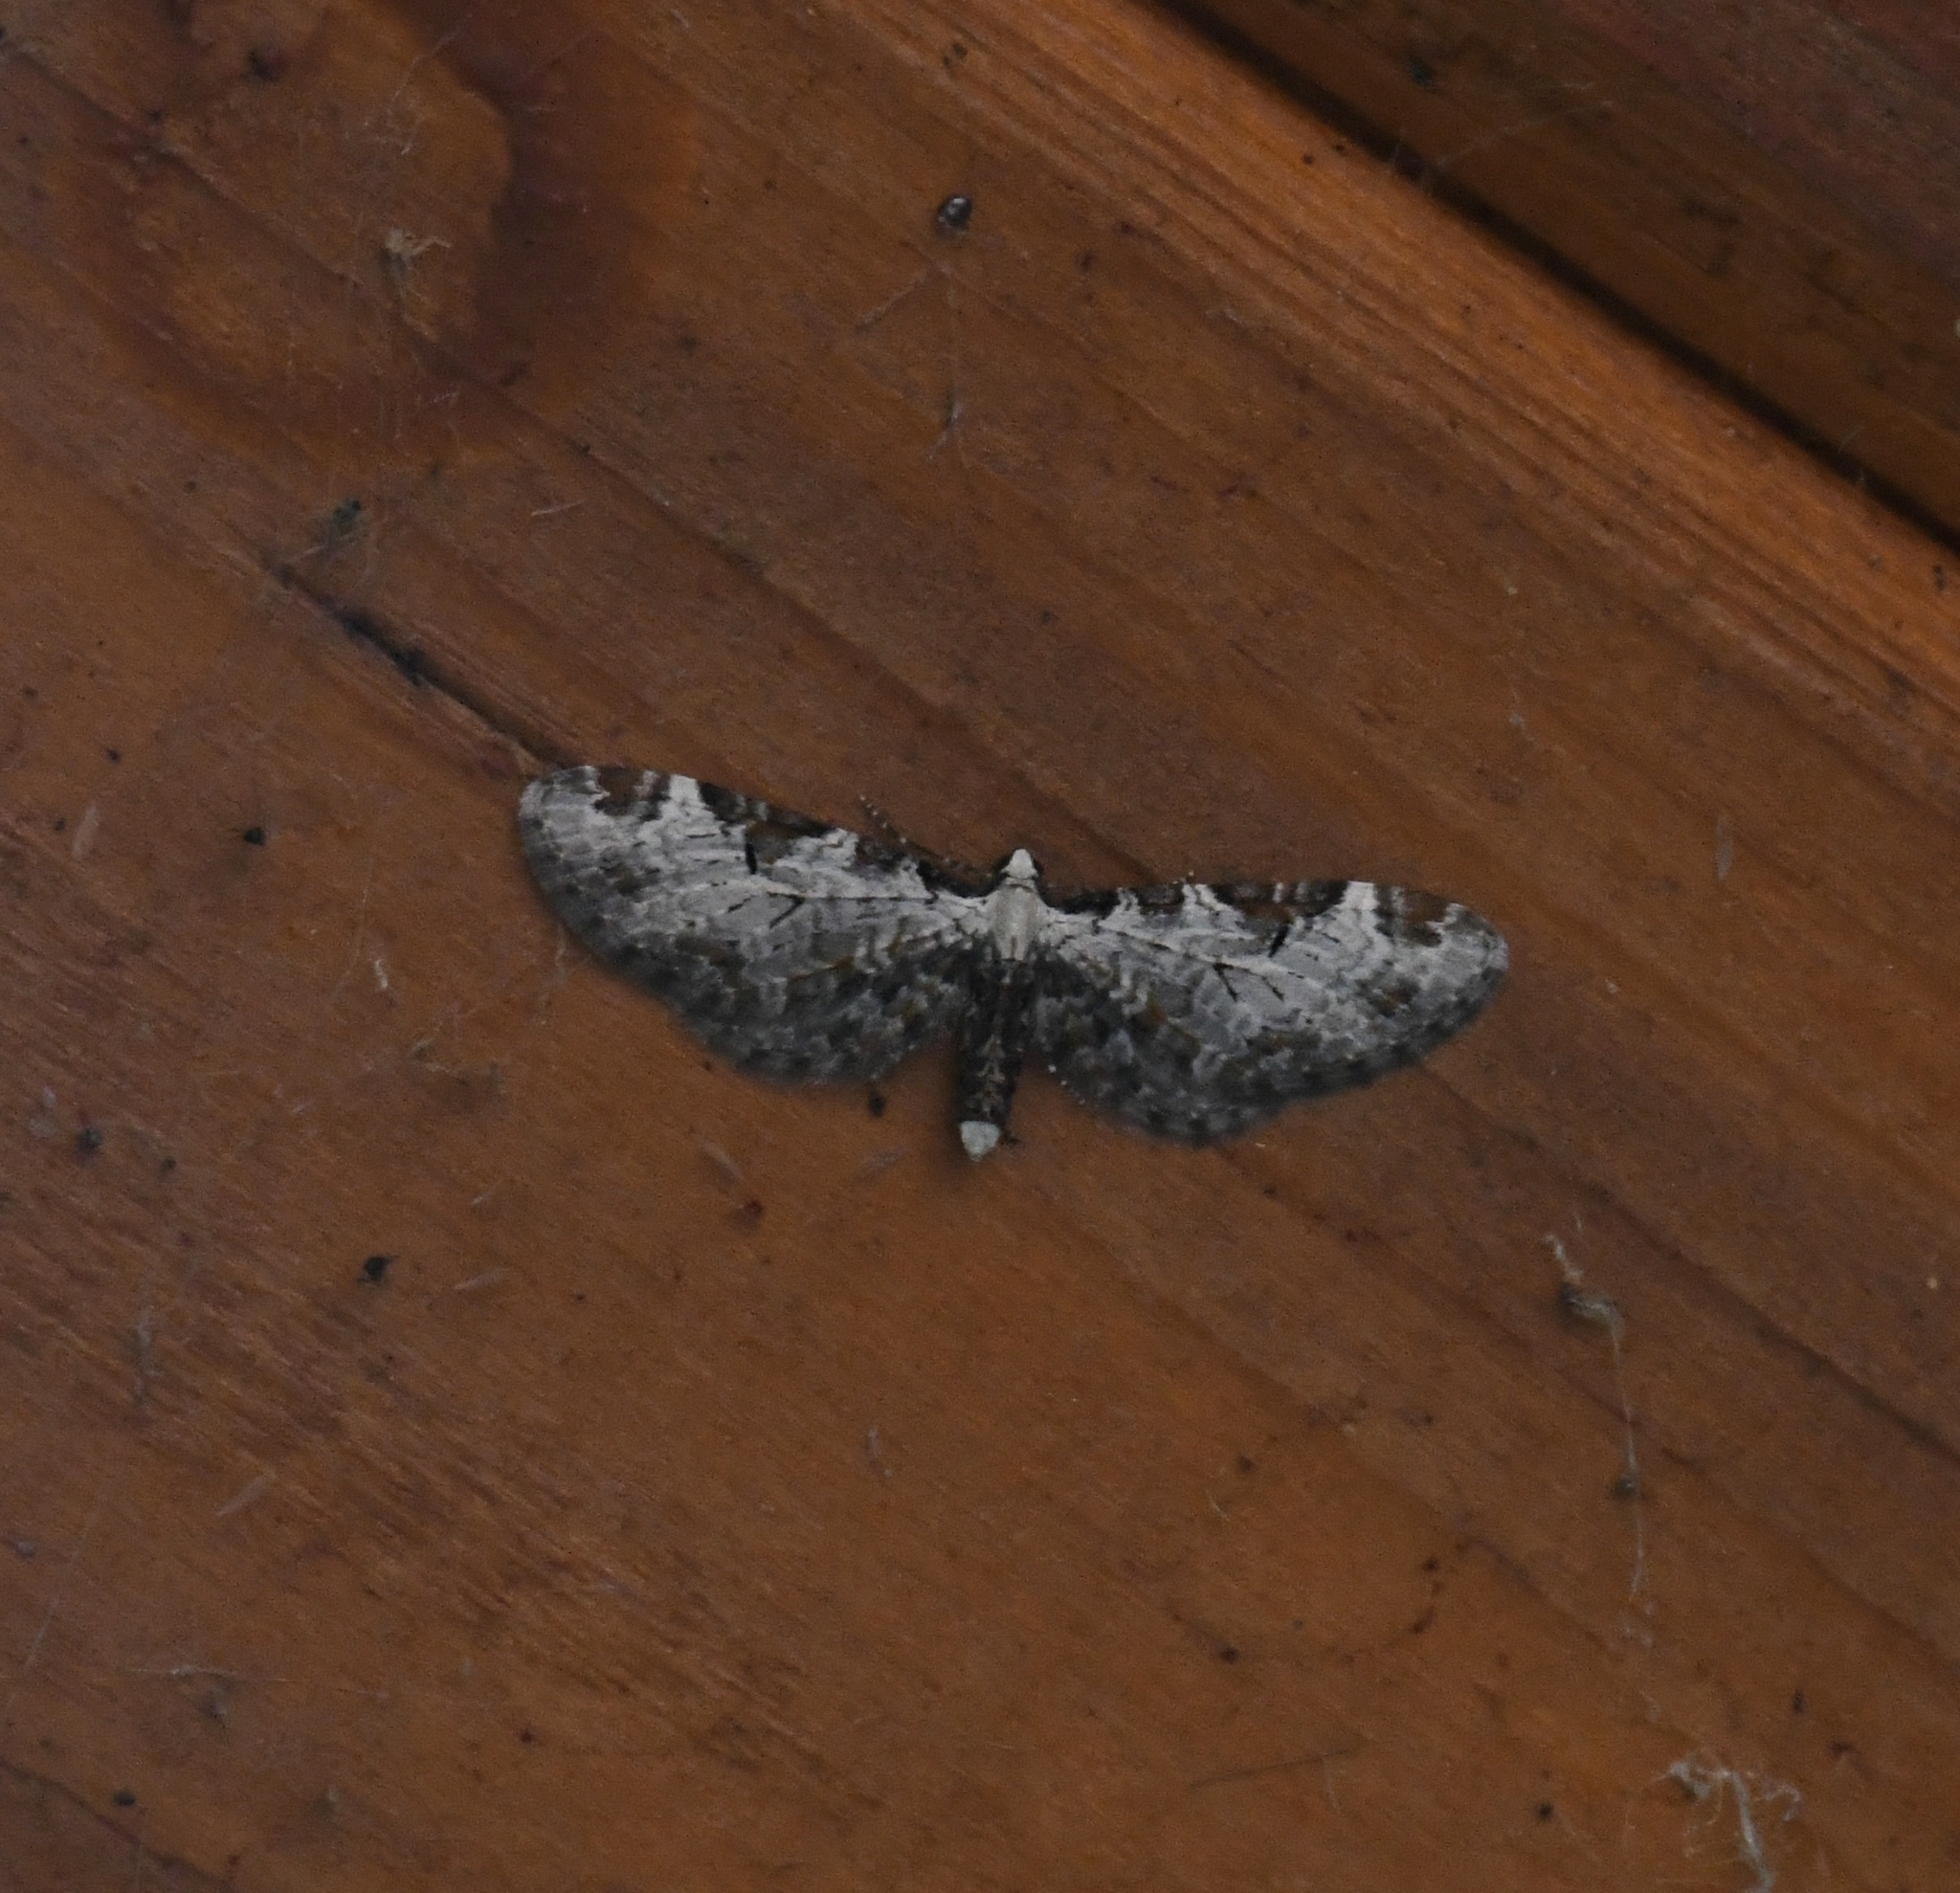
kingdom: Animalia
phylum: Arthropoda
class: Insecta
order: Lepidoptera
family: Geometridae
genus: Eupithecia
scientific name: Eupithecia ravocostaliata
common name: Great varigated pug
